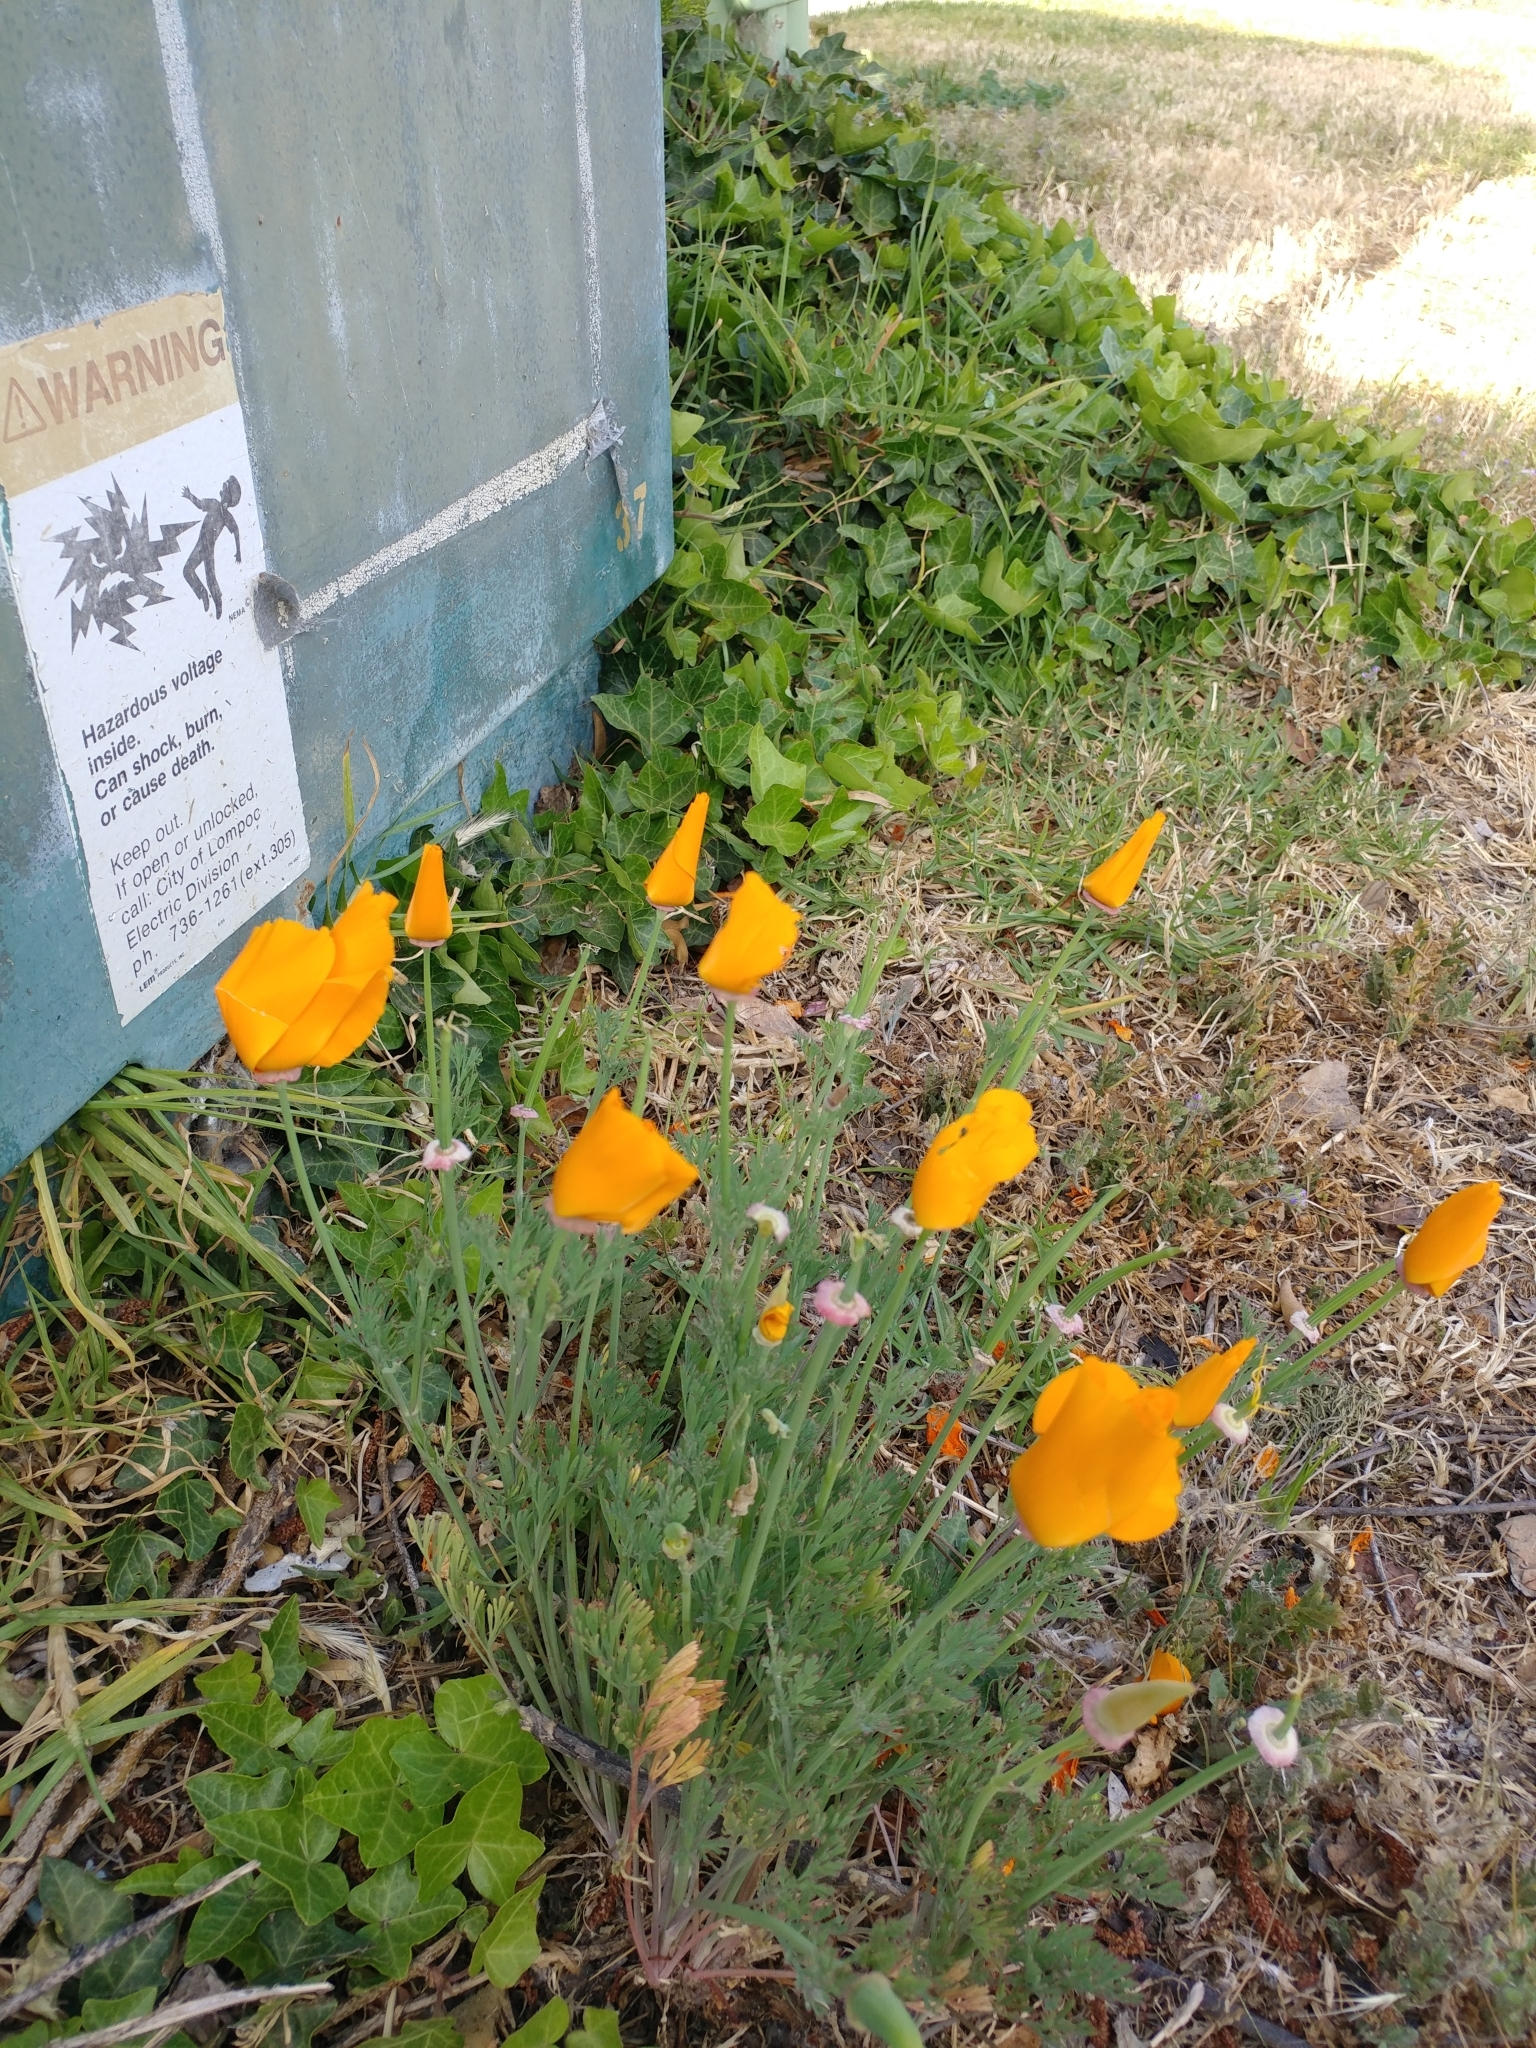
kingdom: Plantae
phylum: Tracheophyta
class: Magnoliopsida
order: Ranunculales
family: Papaveraceae
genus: Eschscholzia
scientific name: Eschscholzia californica
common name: California poppy
